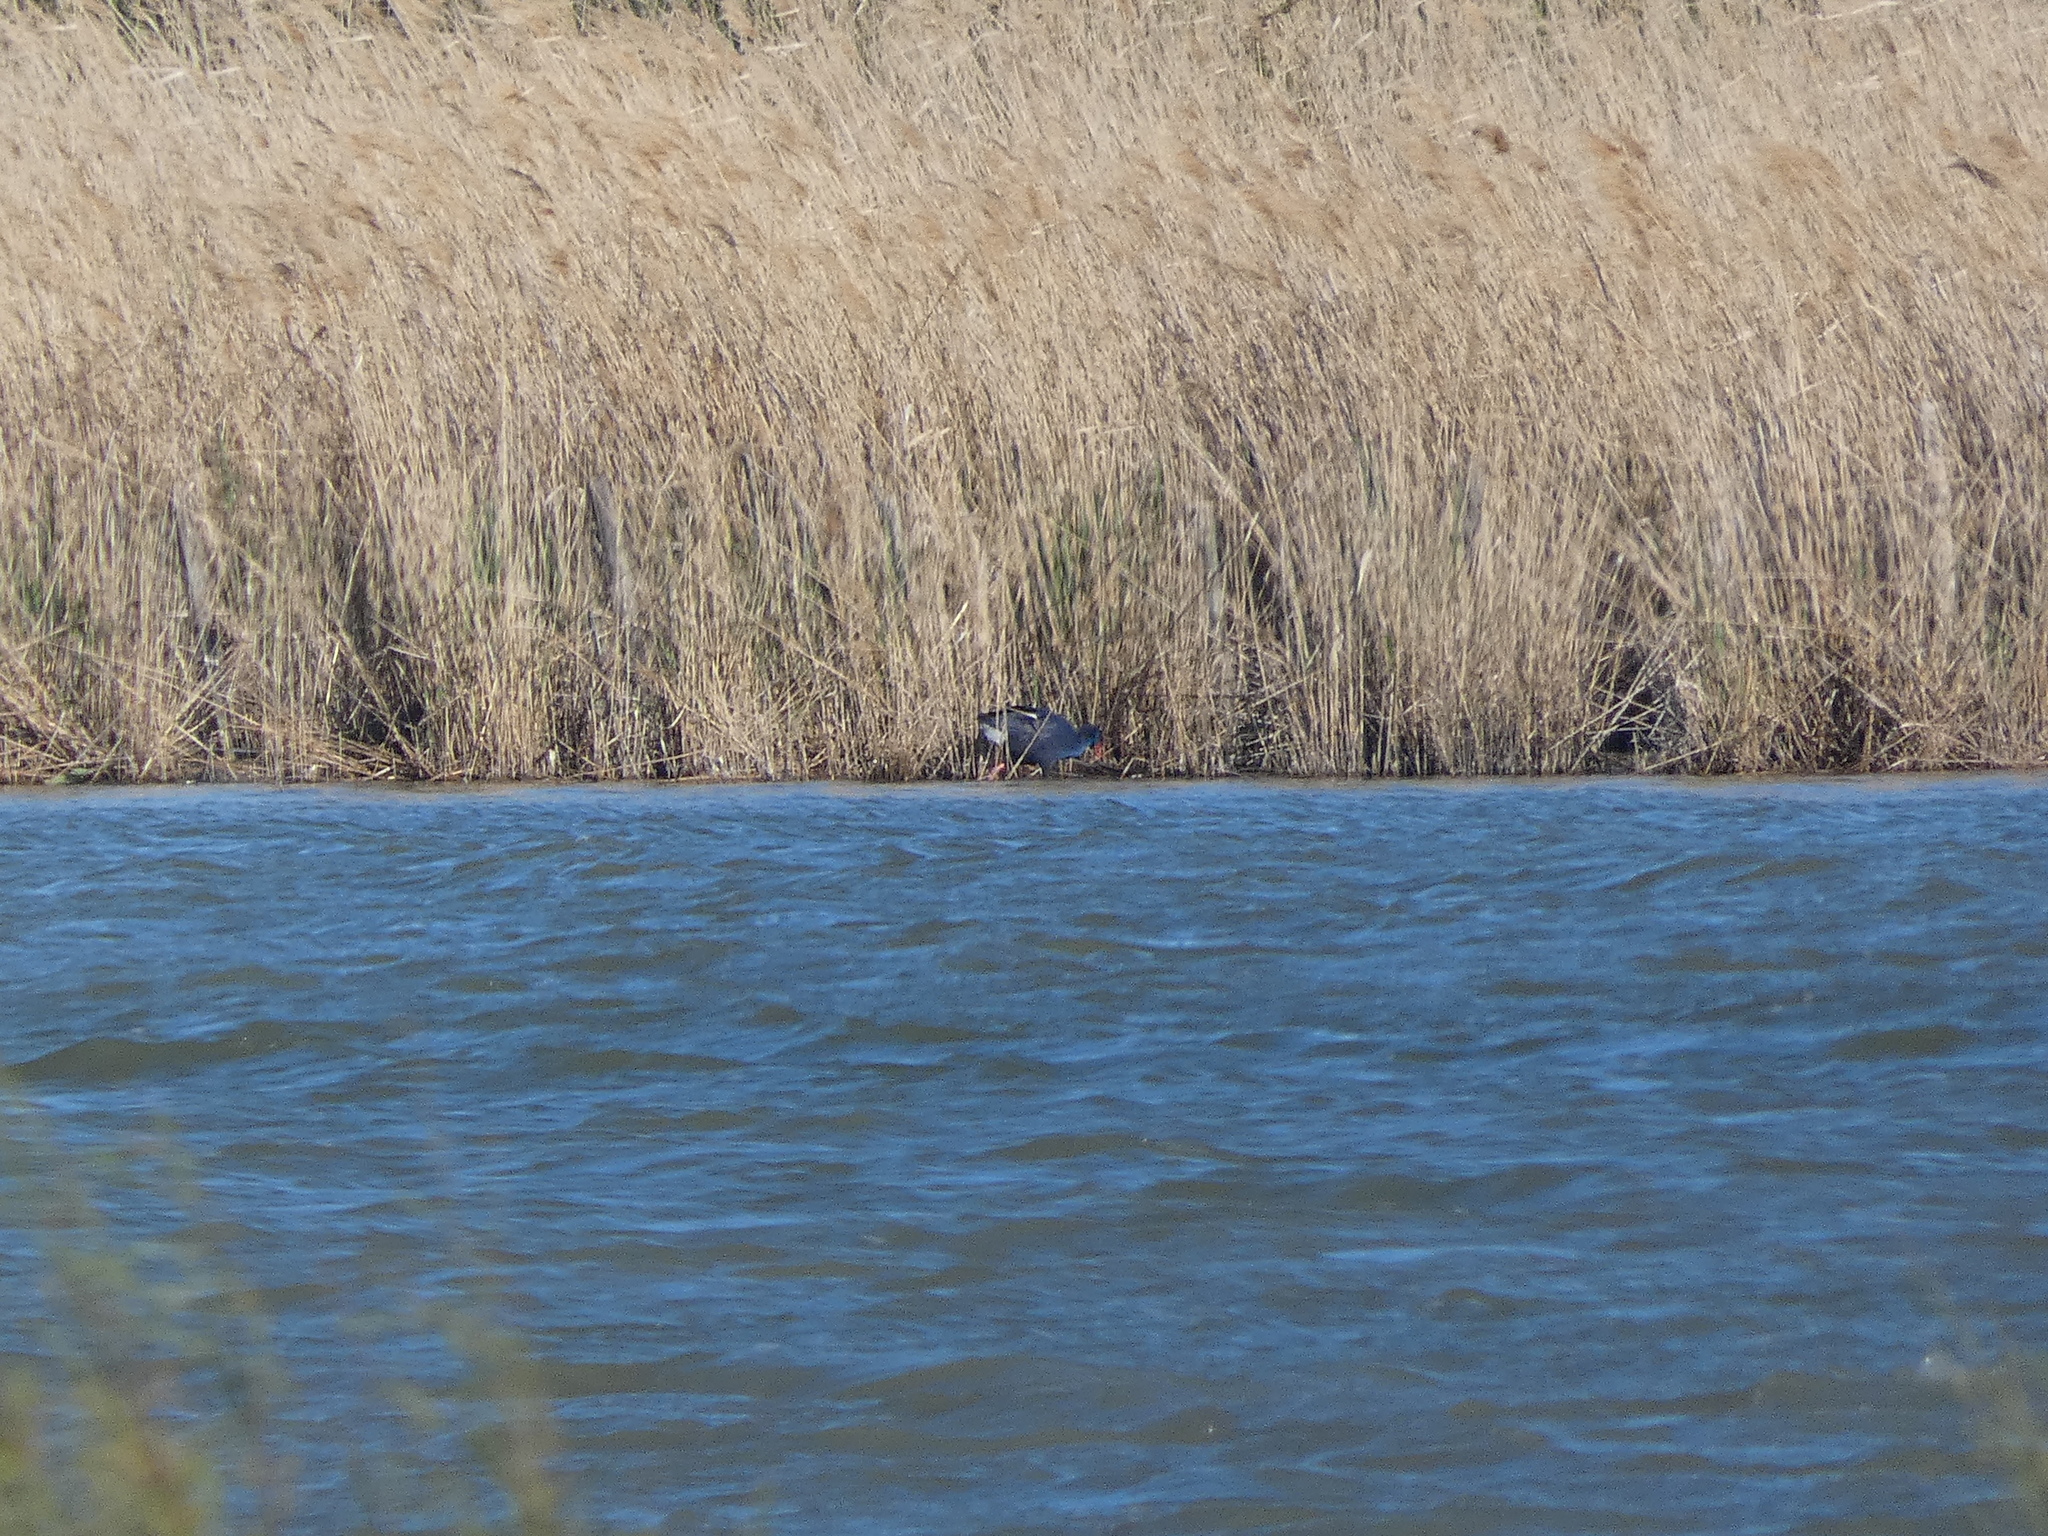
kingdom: Animalia
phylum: Chordata
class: Aves
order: Gruiformes
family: Rallidae
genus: Porphyrio
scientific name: Porphyrio porphyrio
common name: Purple swamphen
